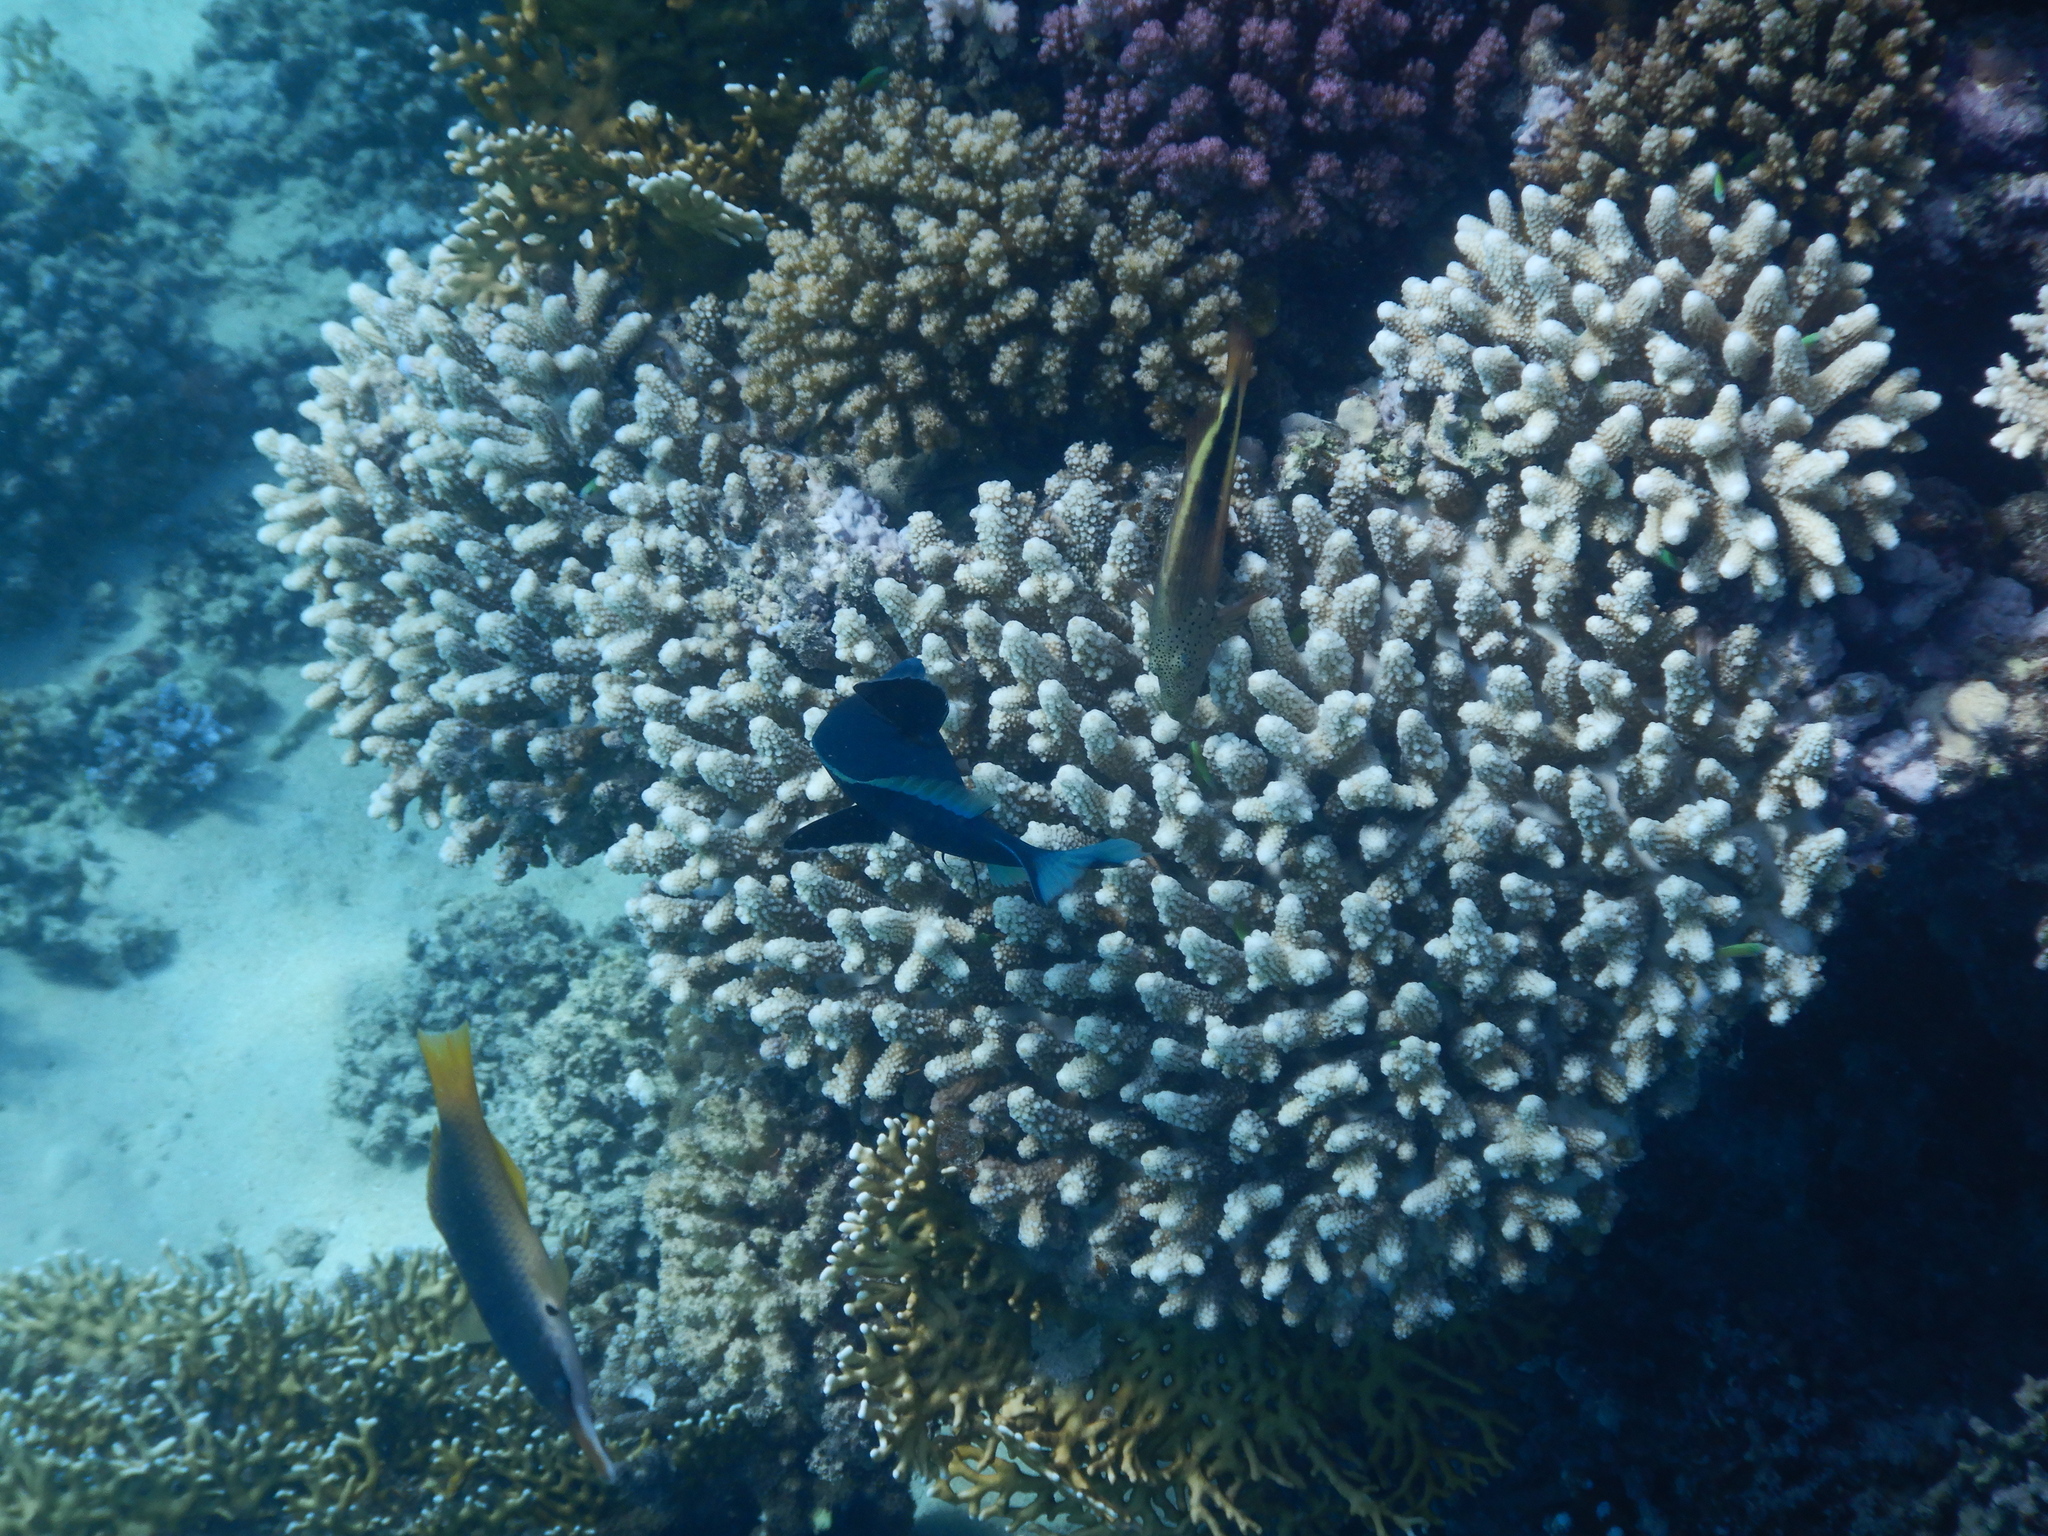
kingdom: Animalia
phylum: Chordata
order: Perciformes
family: Labridae
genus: Gomphosus
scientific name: Gomphosus klunzingeri
